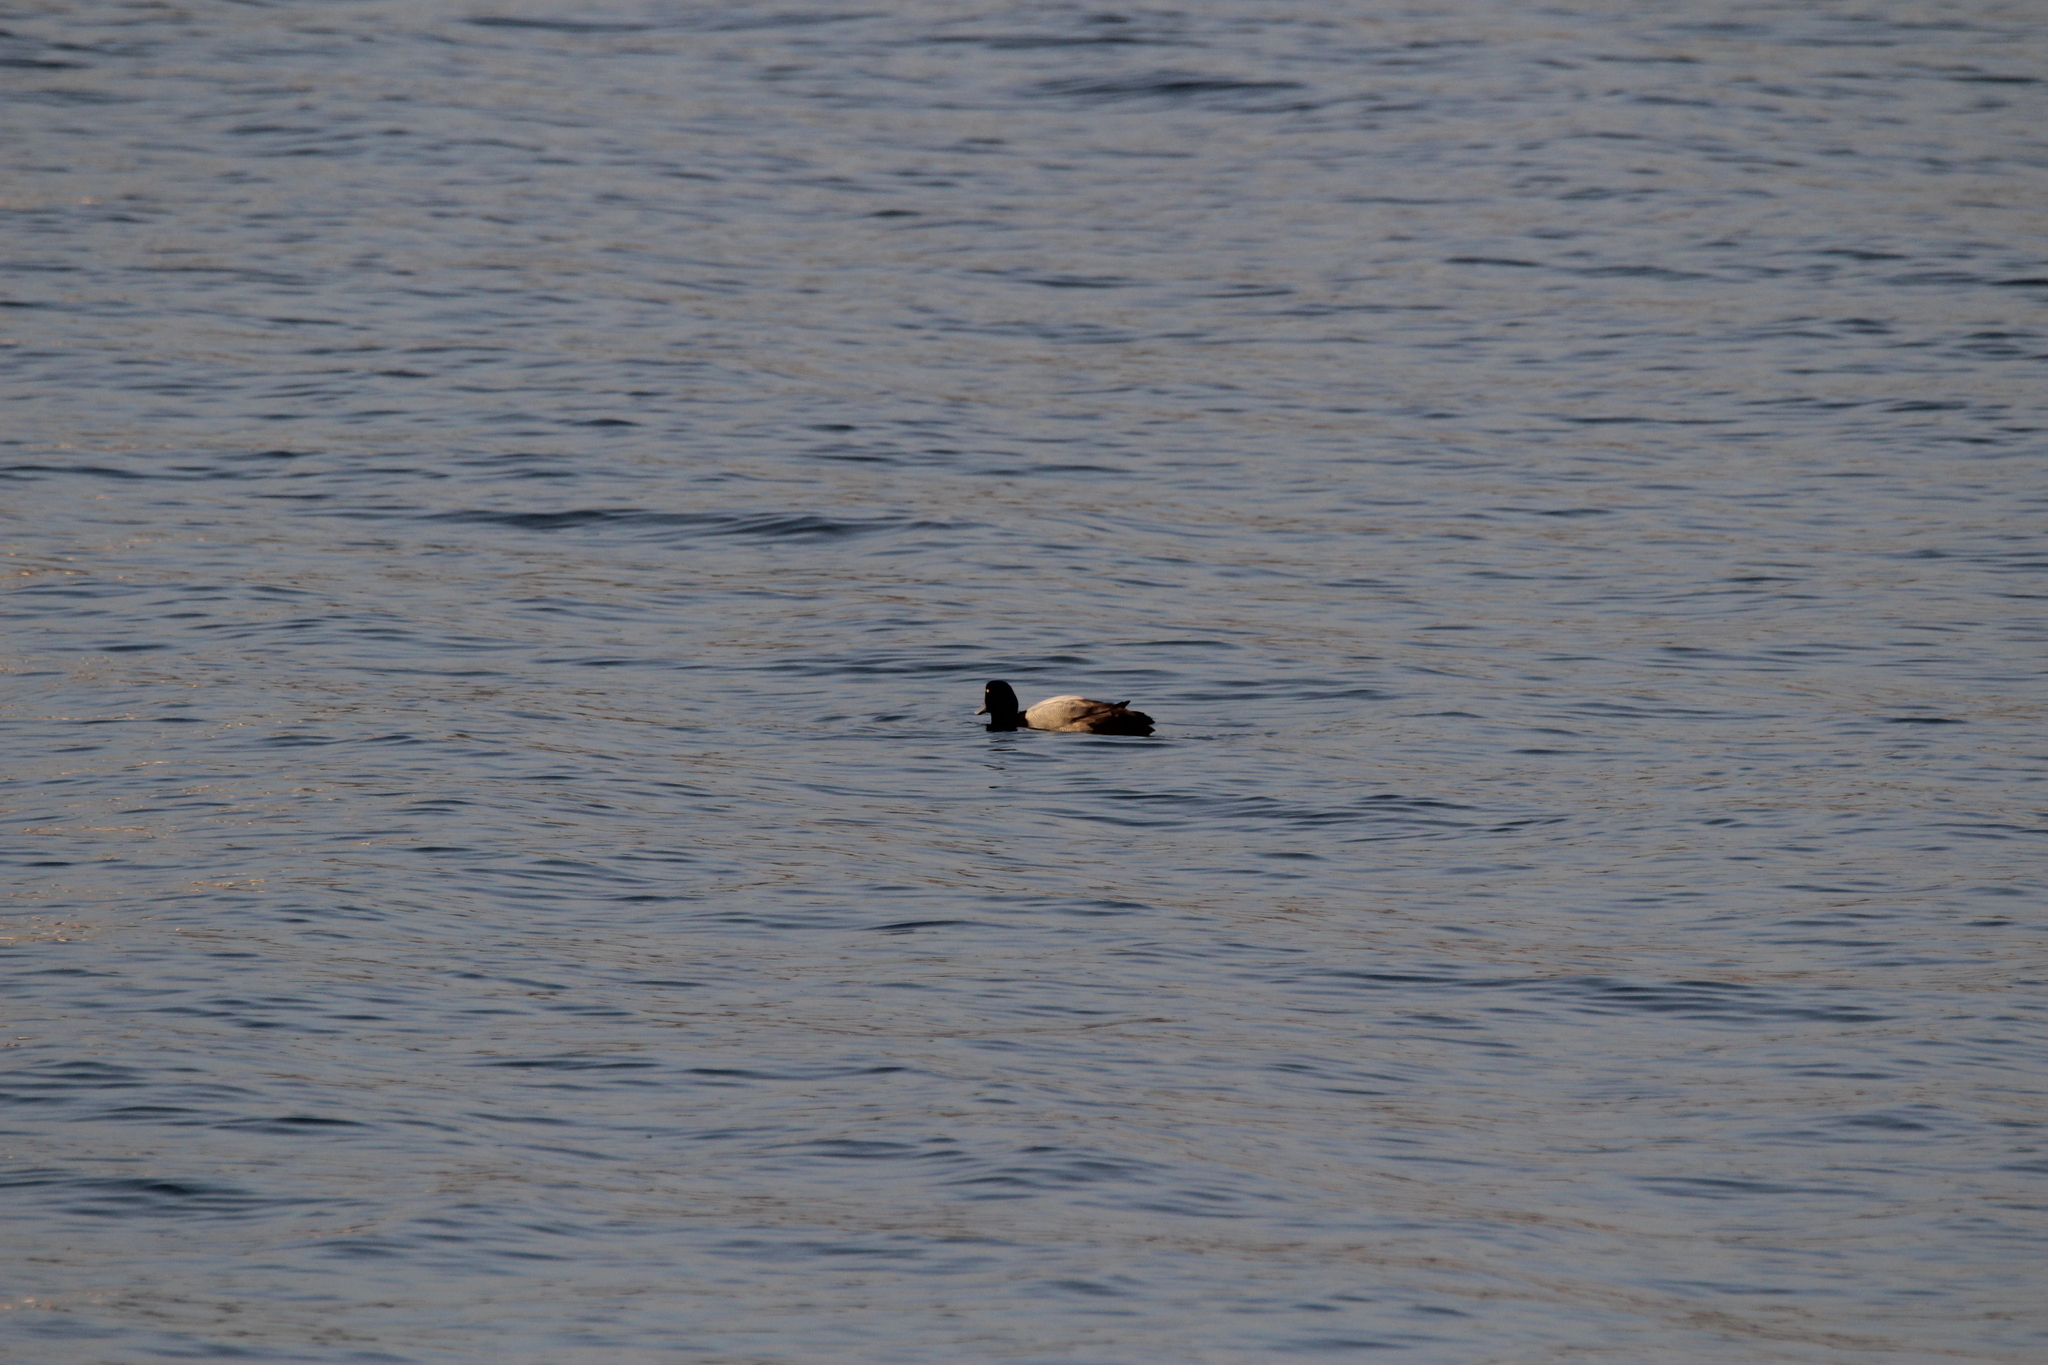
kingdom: Animalia
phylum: Chordata
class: Aves
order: Anseriformes
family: Anatidae
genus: Aythya
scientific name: Aythya
